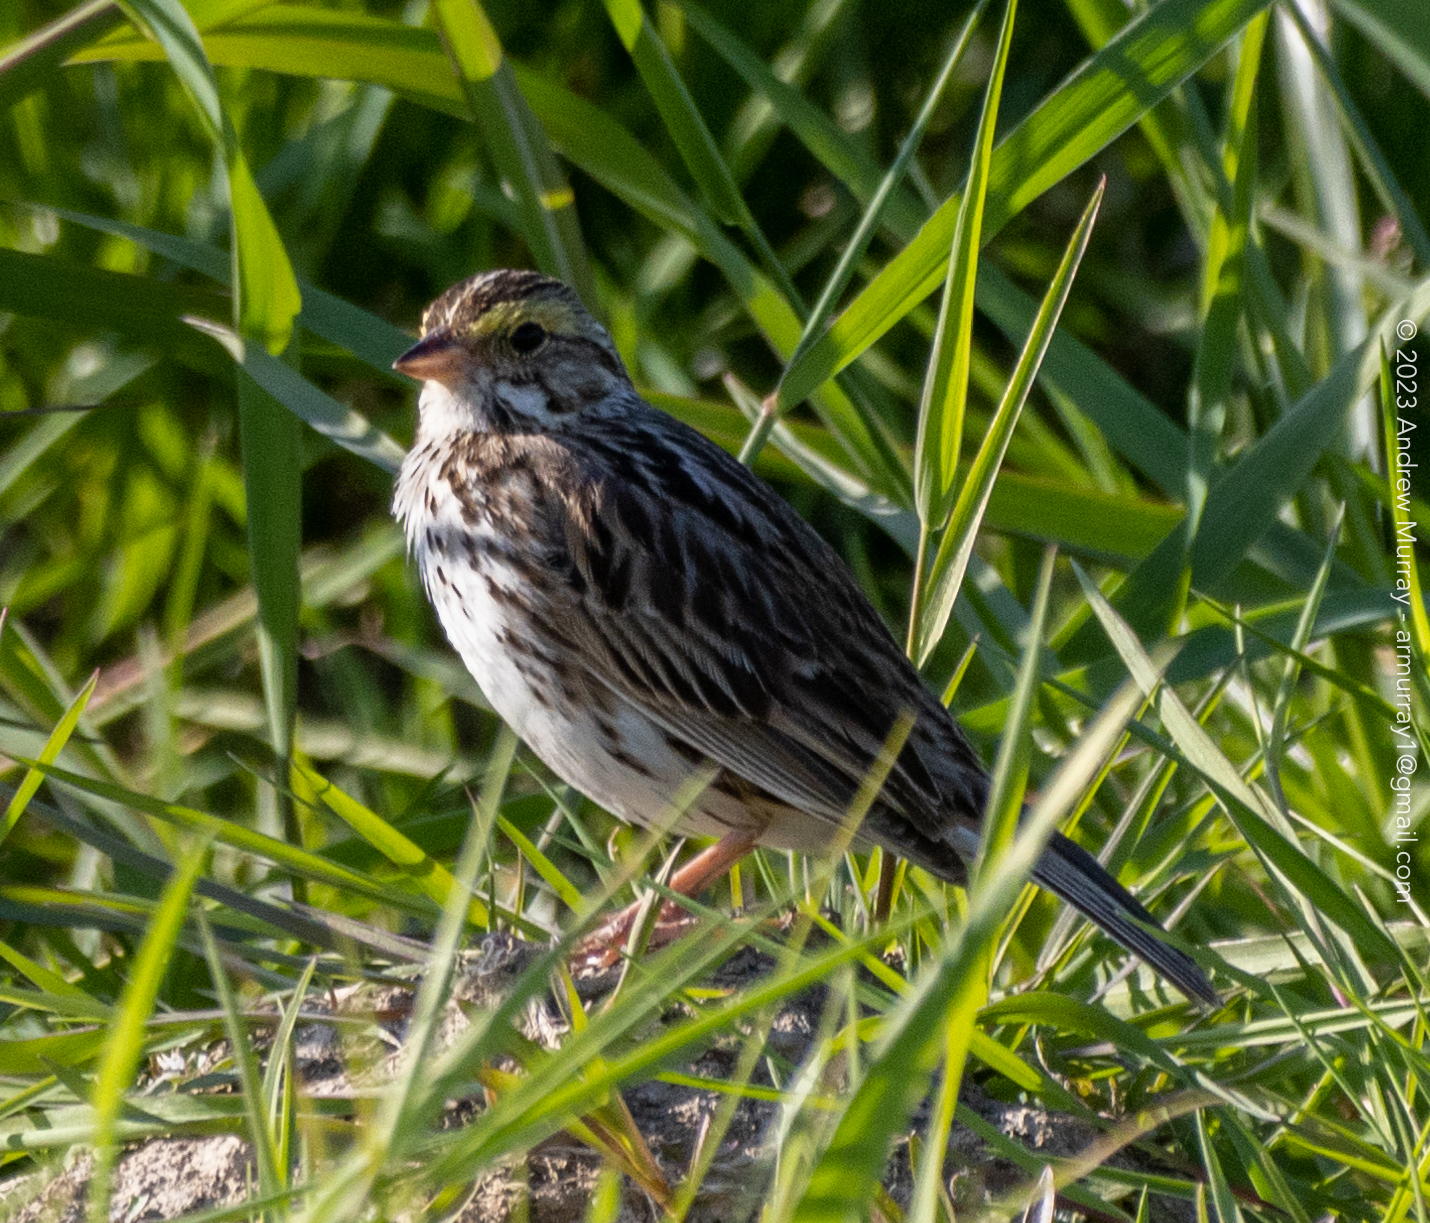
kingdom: Animalia
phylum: Chordata
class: Aves
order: Passeriformes
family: Passerellidae
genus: Passerculus
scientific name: Passerculus sandwichensis
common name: Savannah sparrow
